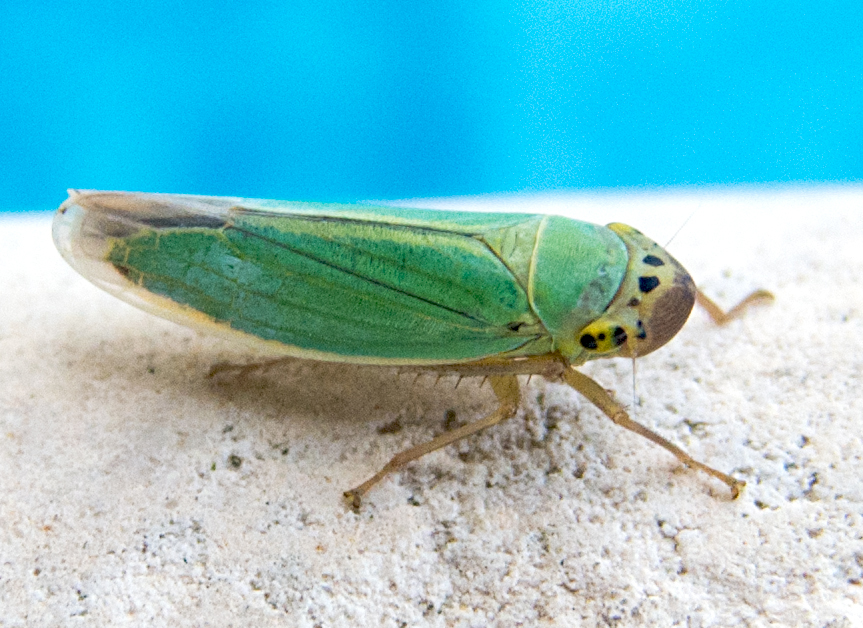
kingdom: Animalia
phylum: Arthropoda
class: Insecta
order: Hemiptera
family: Cicadellidae
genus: Cicadella
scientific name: Cicadella viridis
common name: Leafhopper
